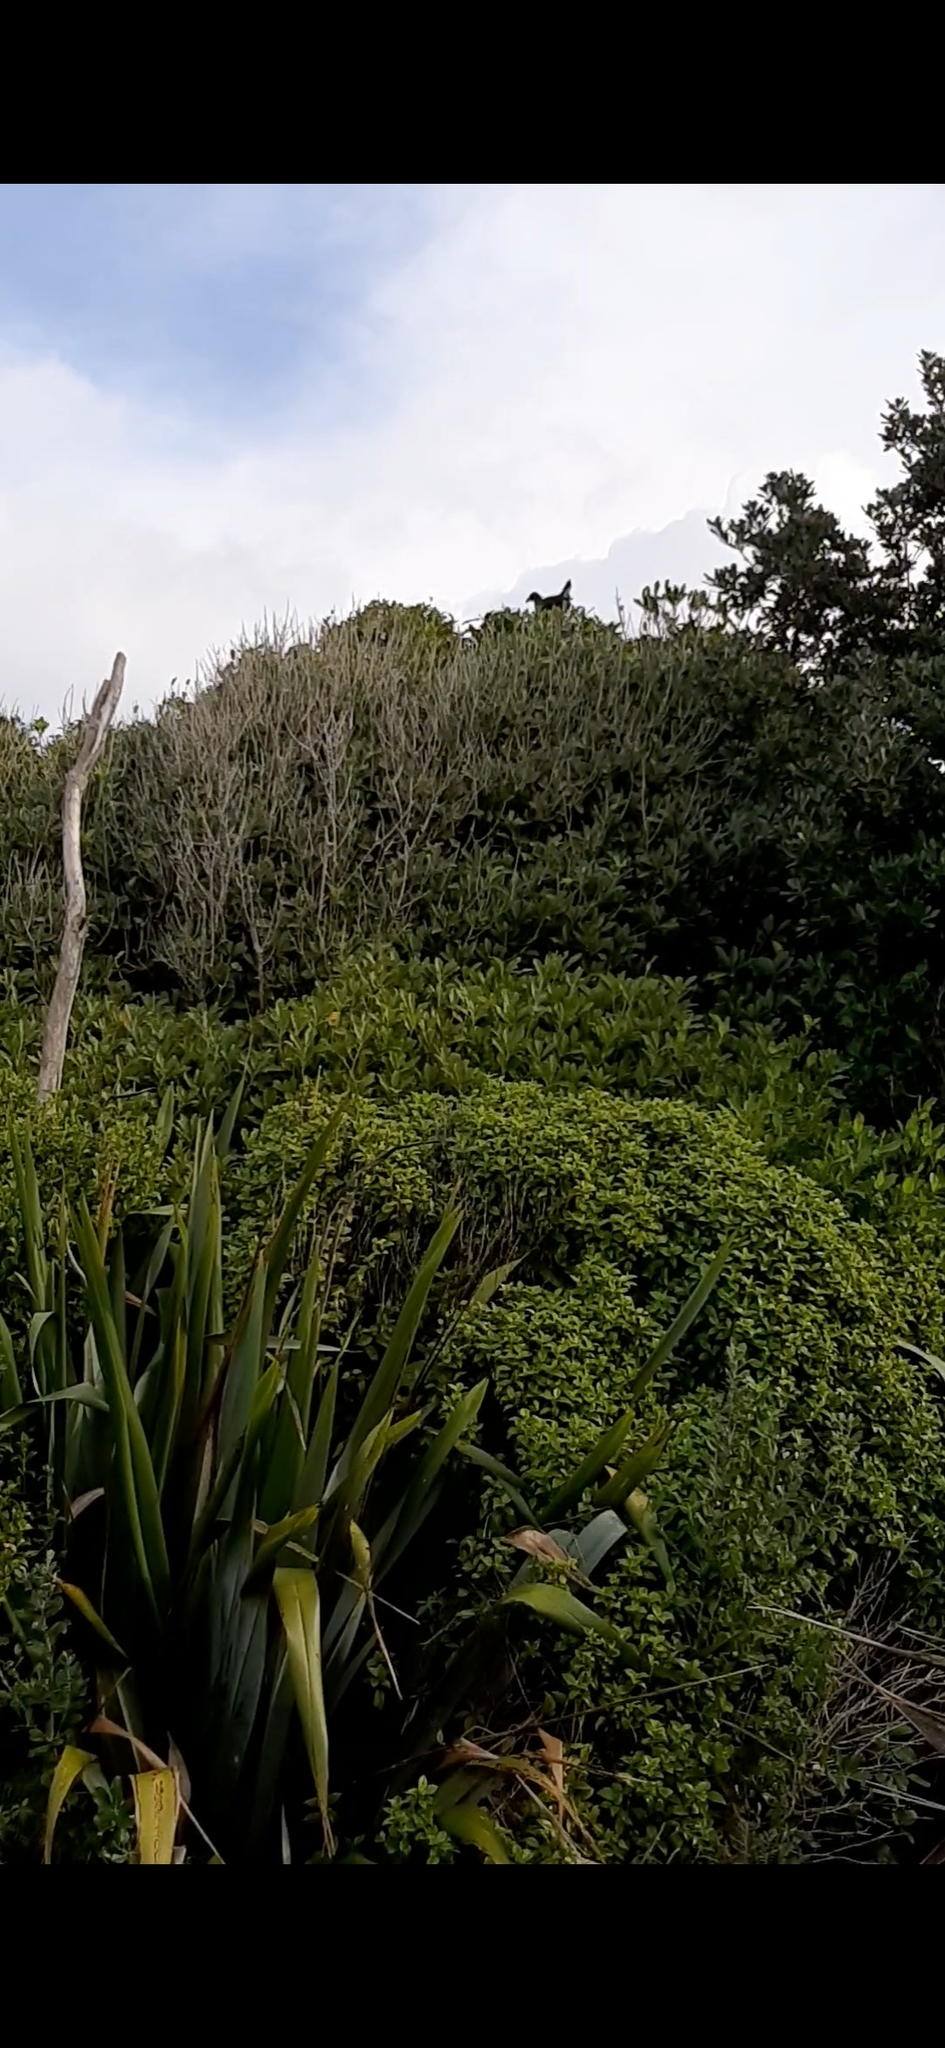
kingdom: Animalia
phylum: Chordata
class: Aves
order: Gruiformes
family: Rallidae
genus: Porphyrio
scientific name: Porphyrio melanotus
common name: Australasian swamphen
